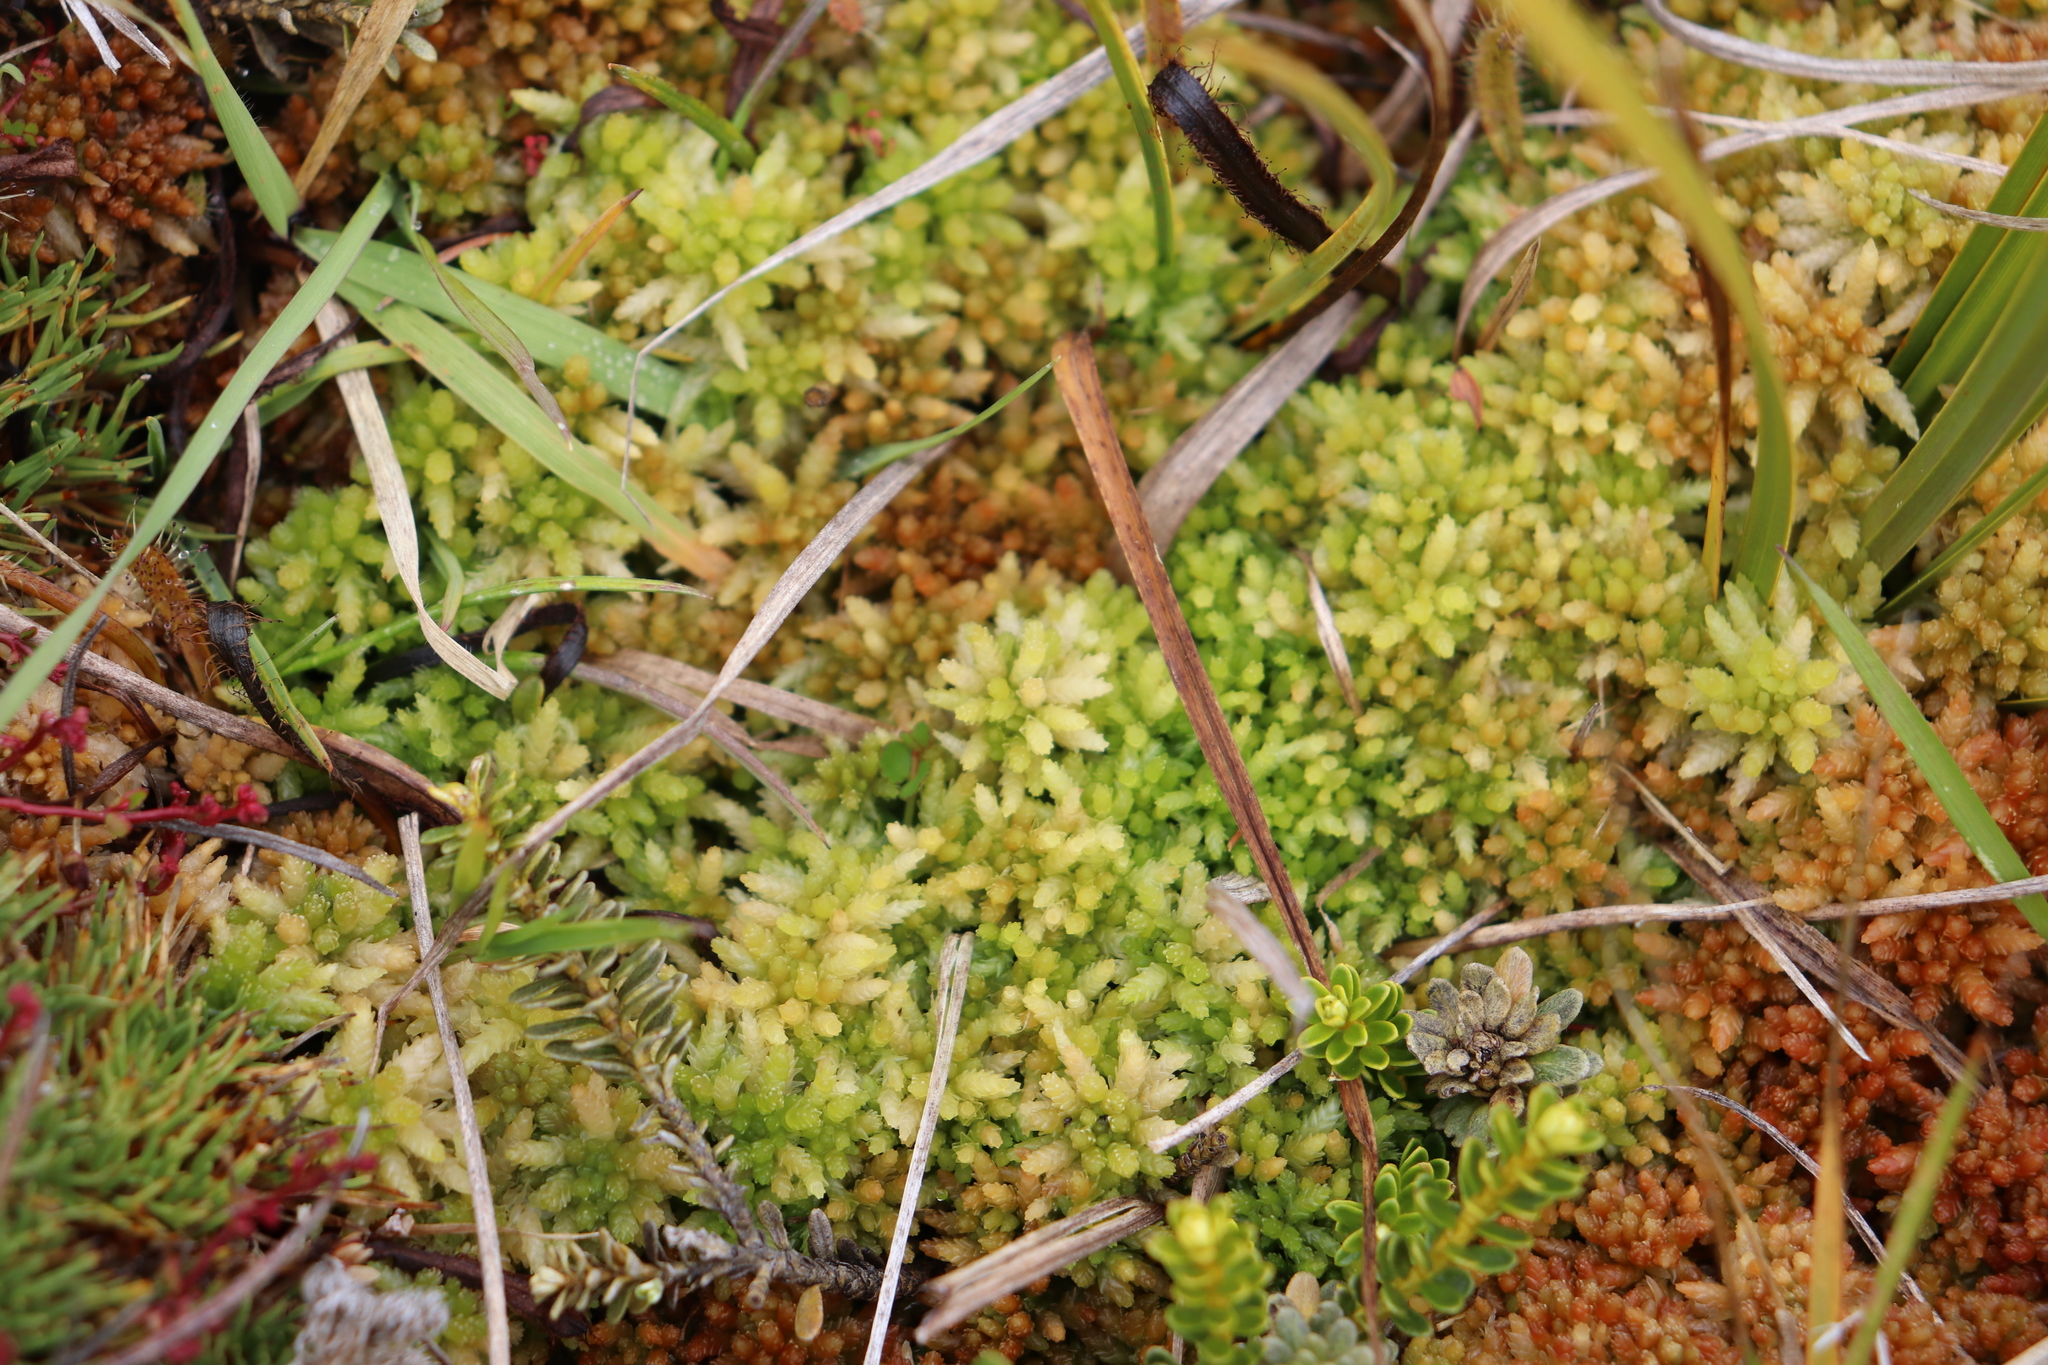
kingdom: Plantae
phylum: Bryophyta
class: Sphagnopsida
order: Sphagnales
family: Sphagnaceae
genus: Sphagnum
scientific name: Sphagnum cristatum
